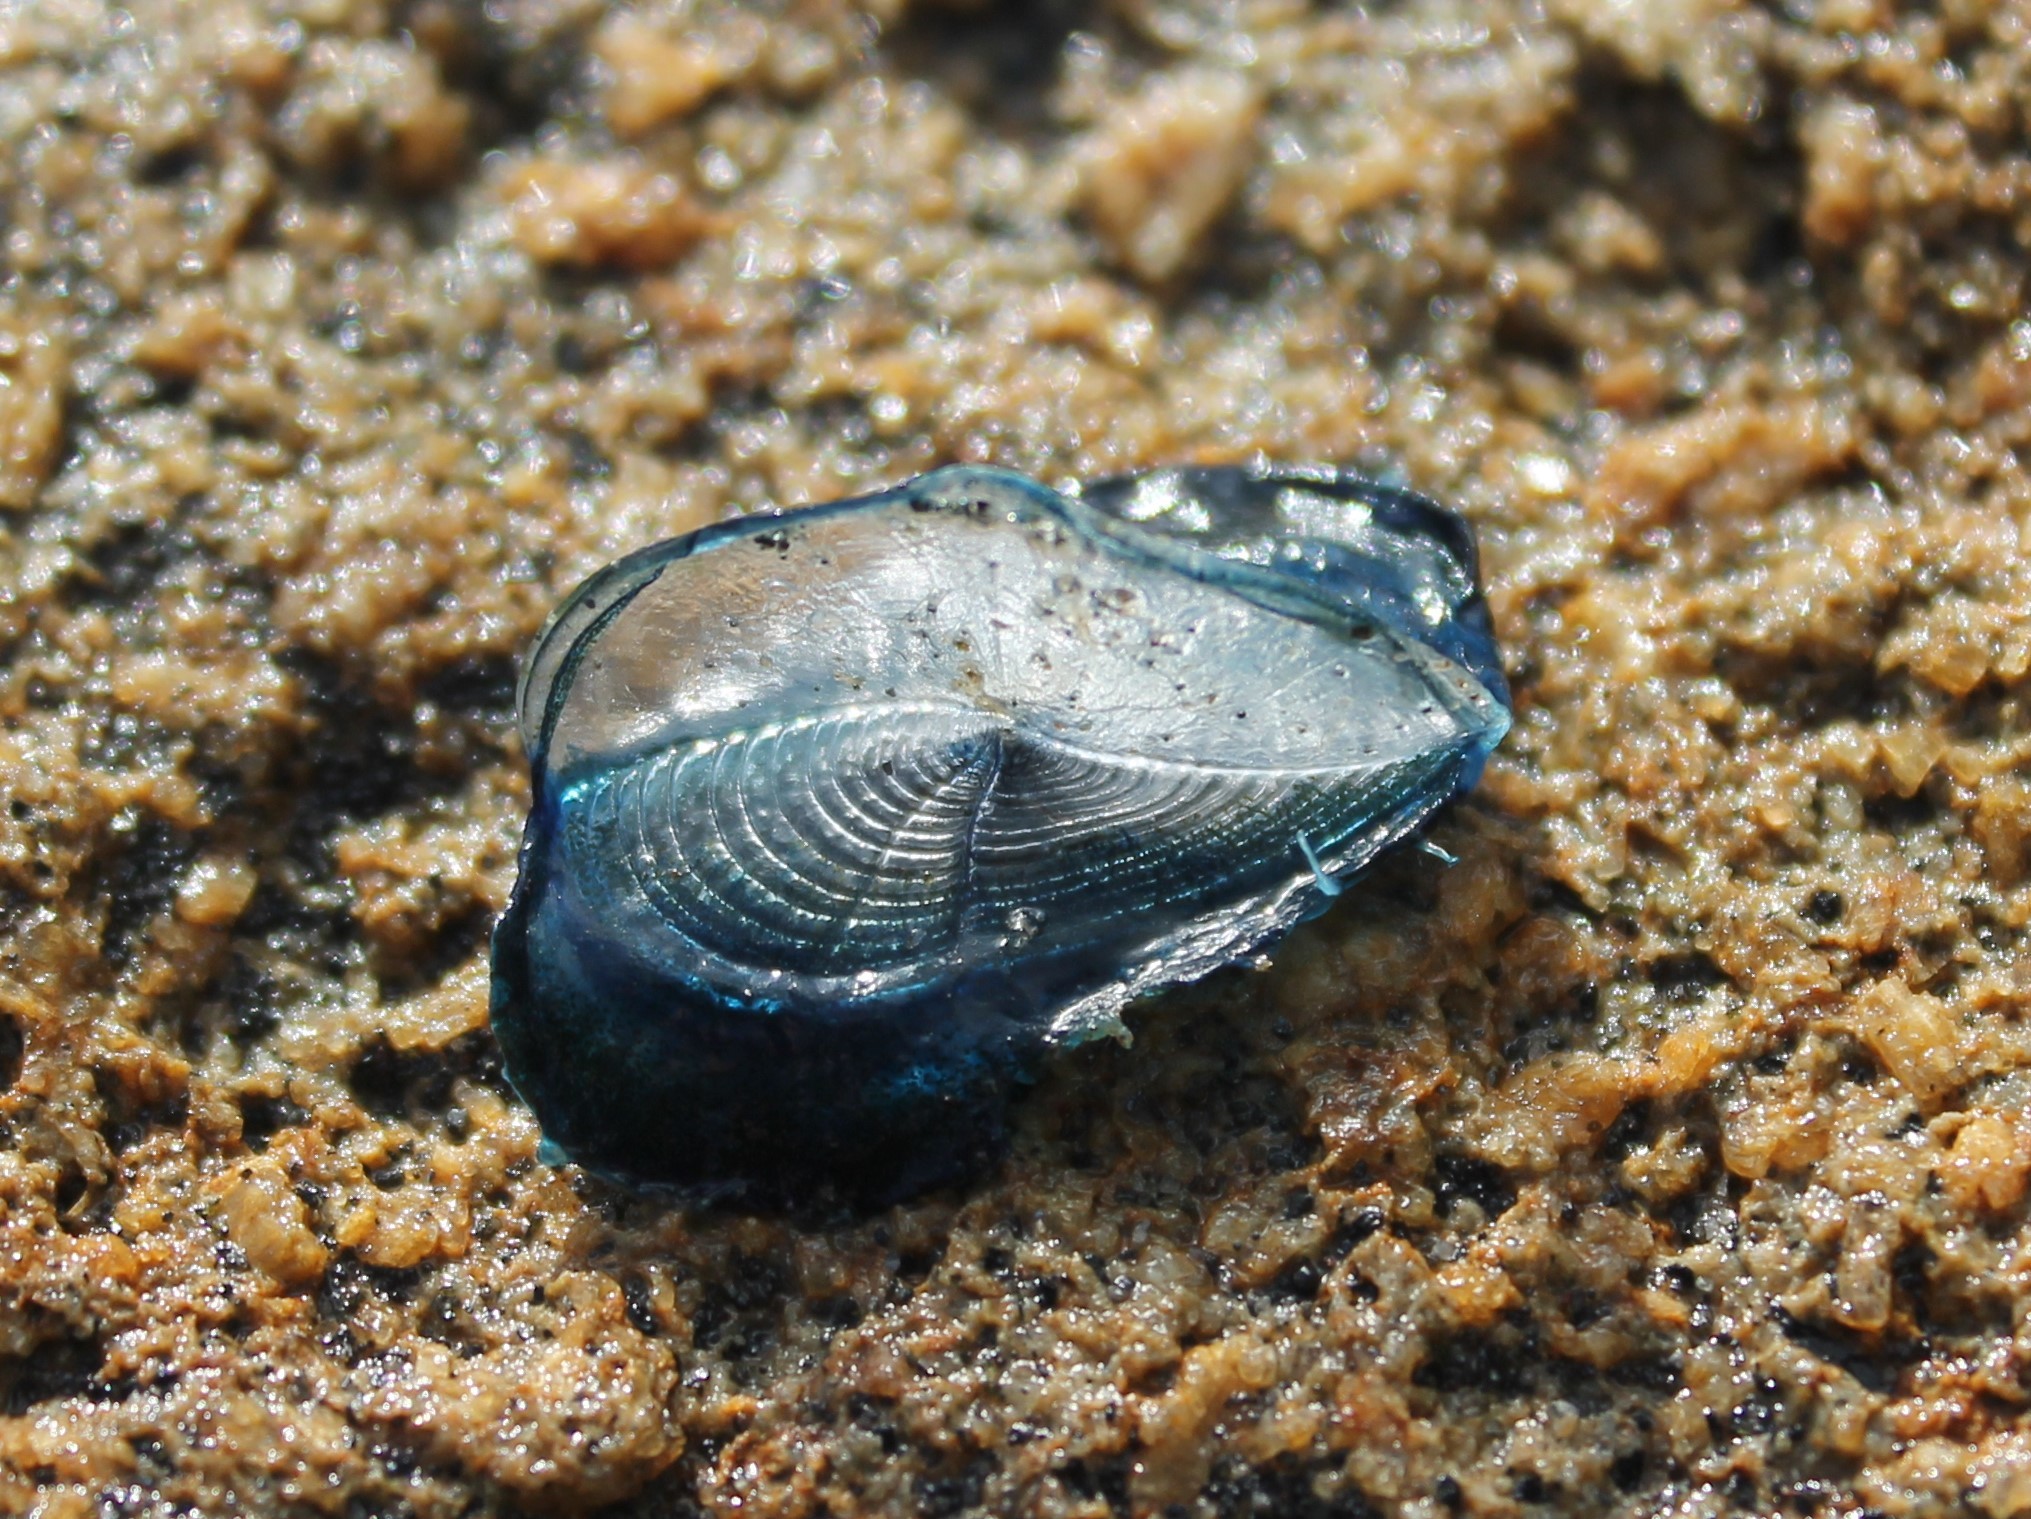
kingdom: Animalia
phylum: Cnidaria
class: Hydrozoa
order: Anthoathecata
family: Porpitidae
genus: Velella
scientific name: Velella velella
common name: By-the-wind-sailor
